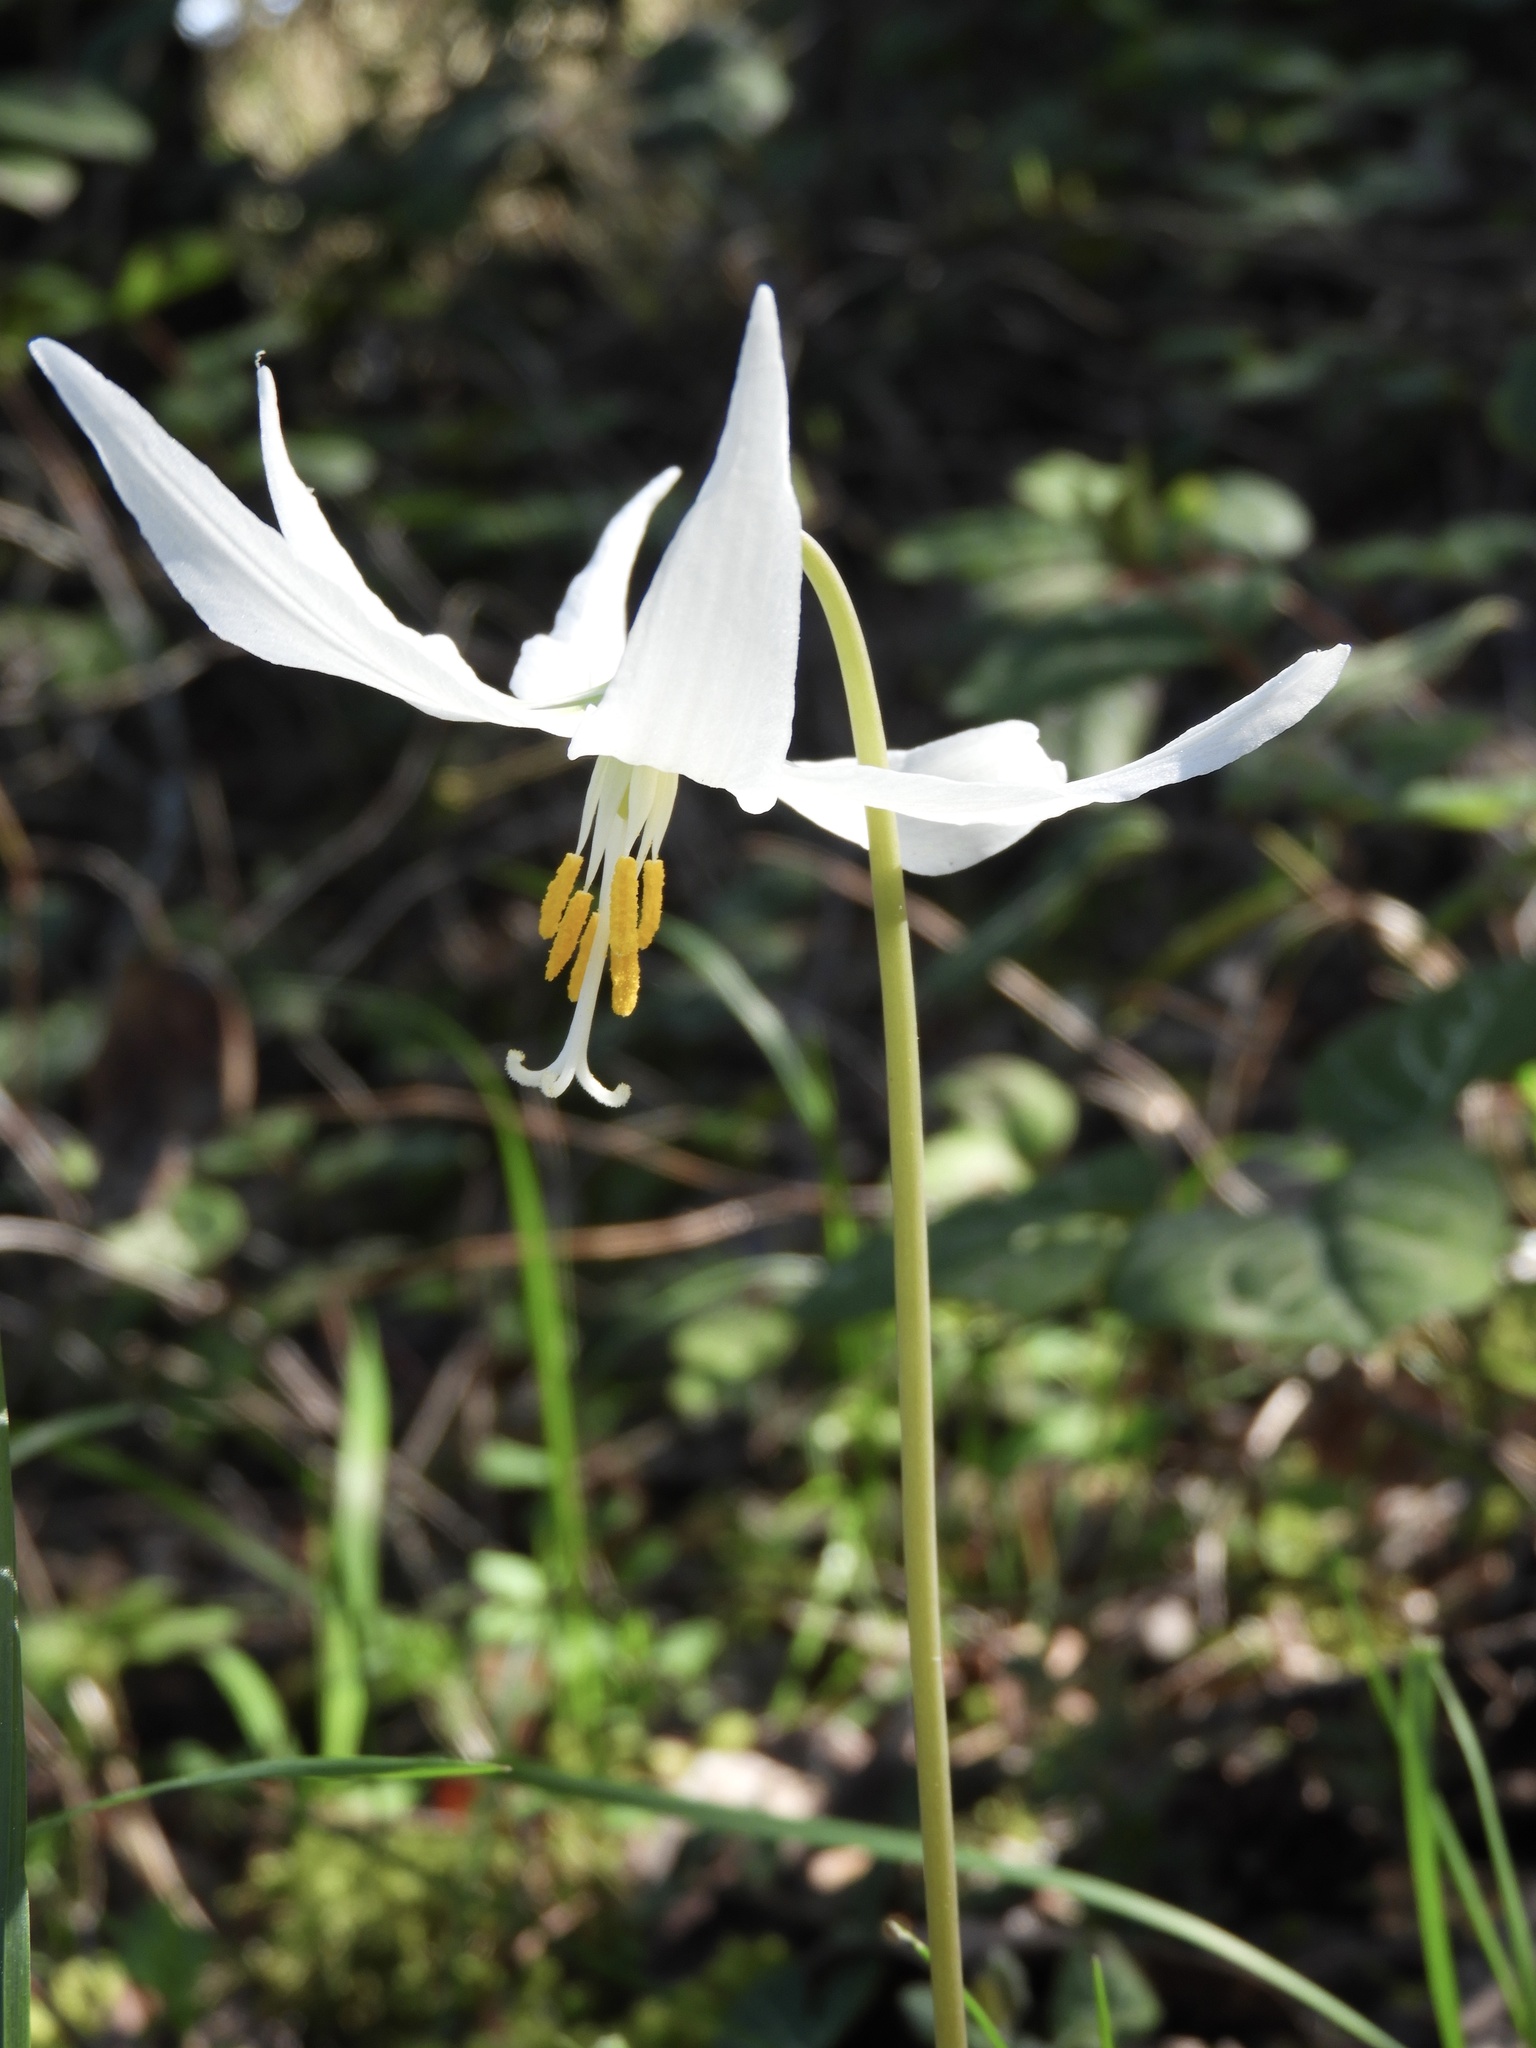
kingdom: Plantae
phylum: Tracheophyta
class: Liliopsida
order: Liliales
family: Liliaceae
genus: Erythronium
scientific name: Erythronium oregonum
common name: Giant adder's-tongue
